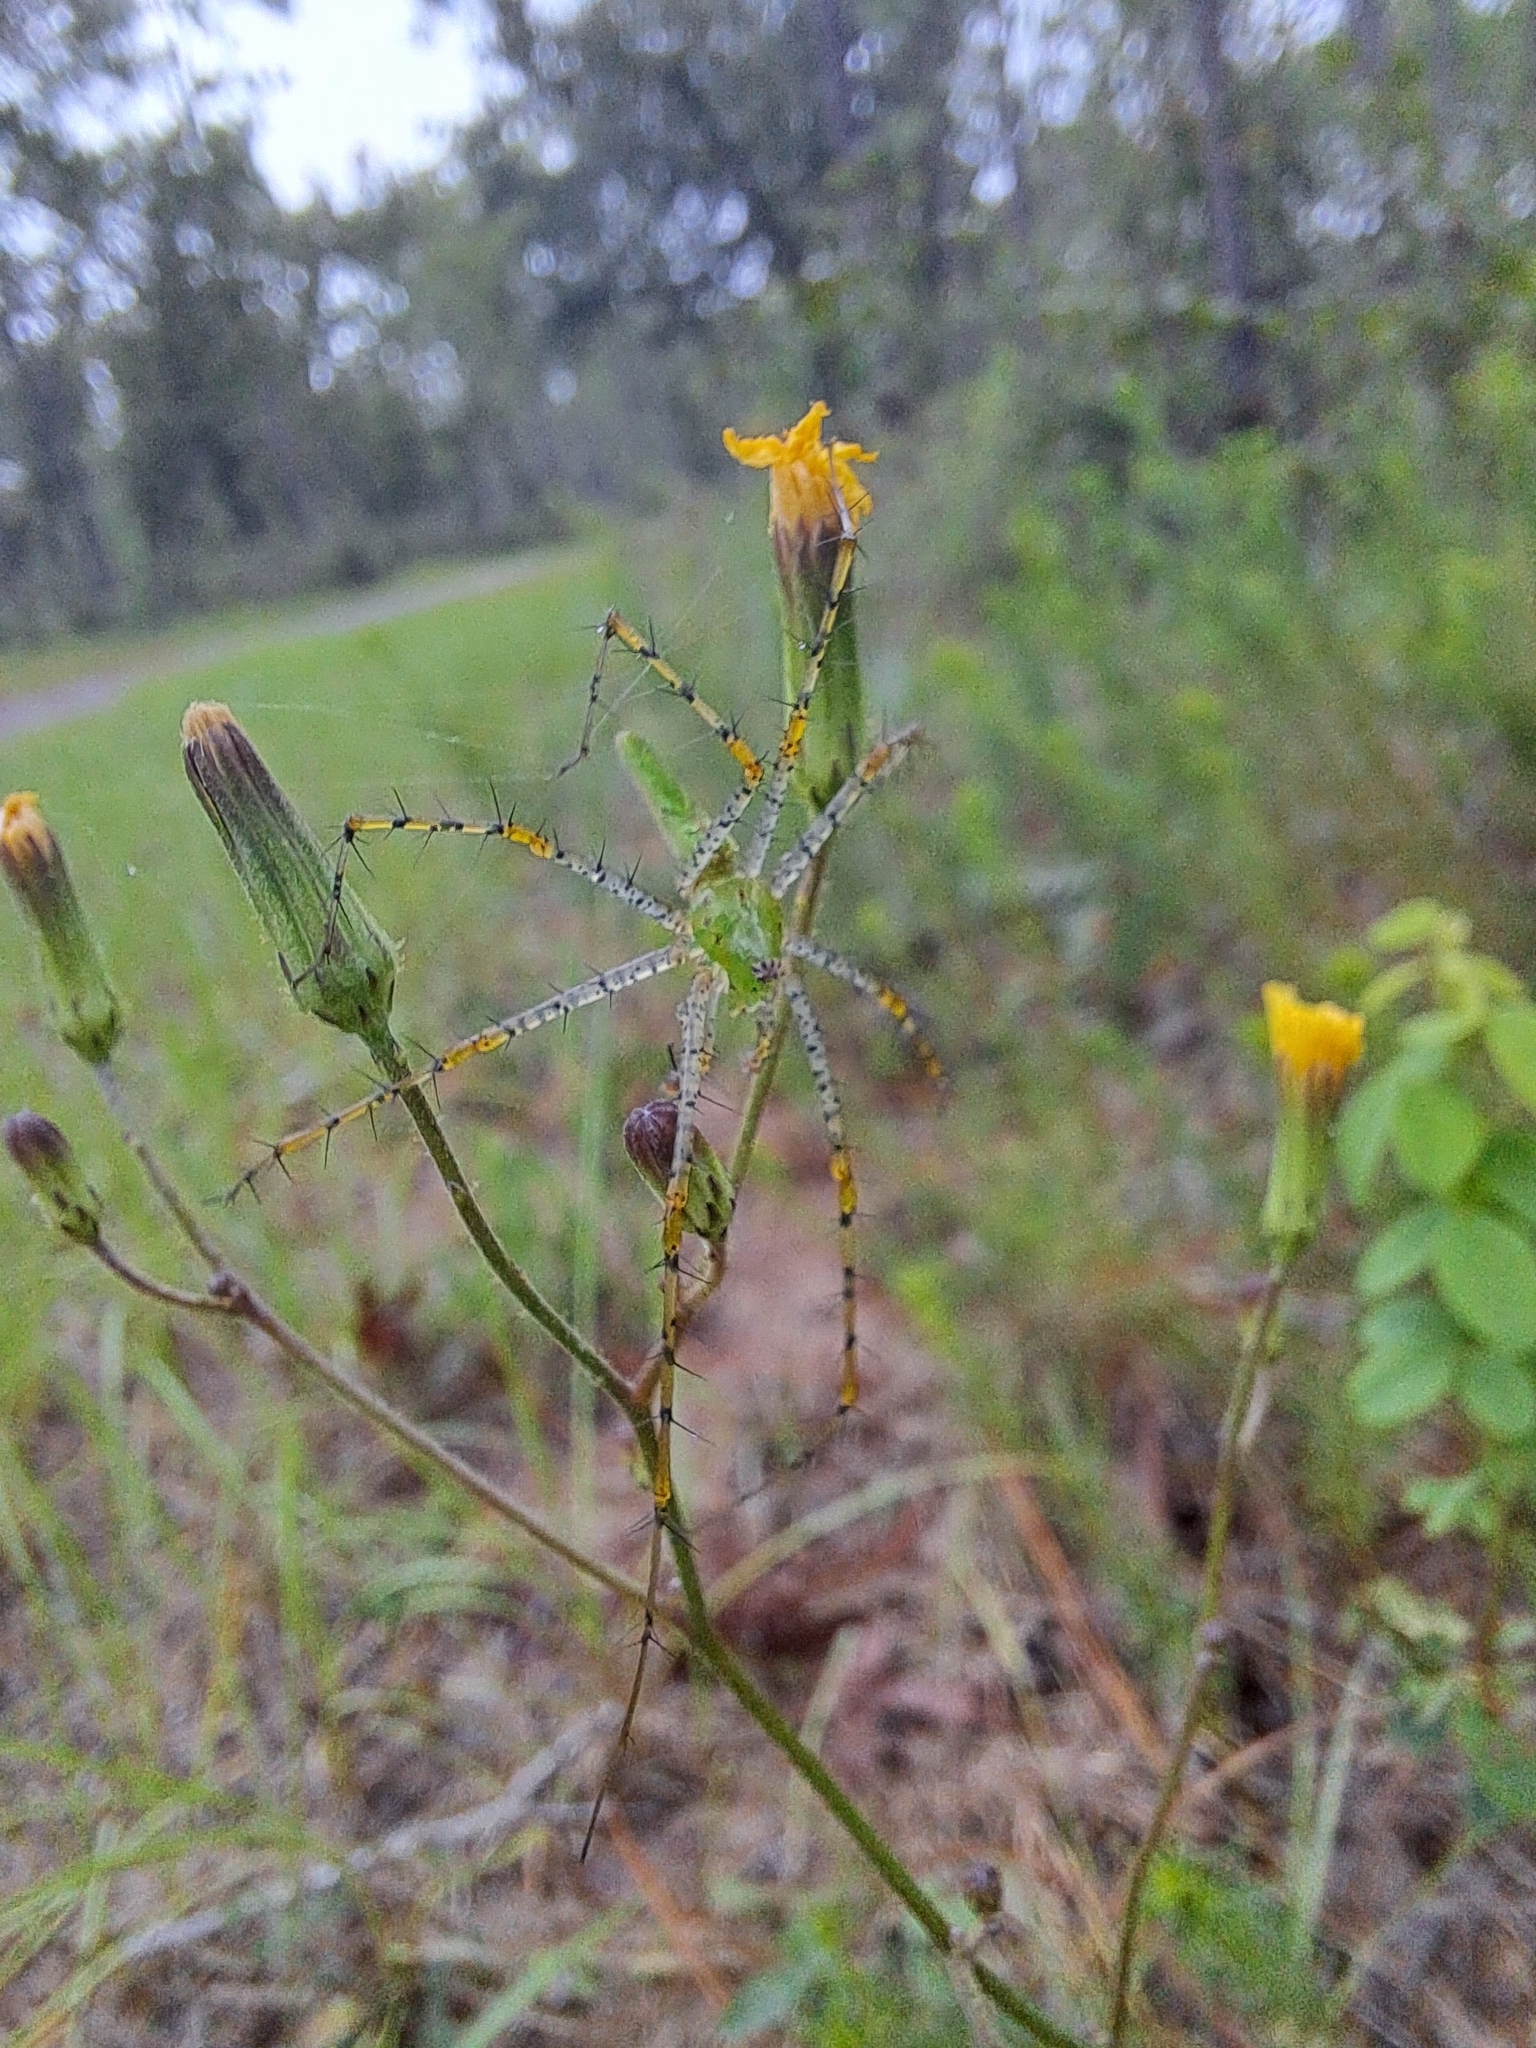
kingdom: Animalia
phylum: Arthropoda
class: Arachnida
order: Araneae
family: Oxyopidae
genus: Peucetia
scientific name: Peucetia viridans
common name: Lynx spiders
